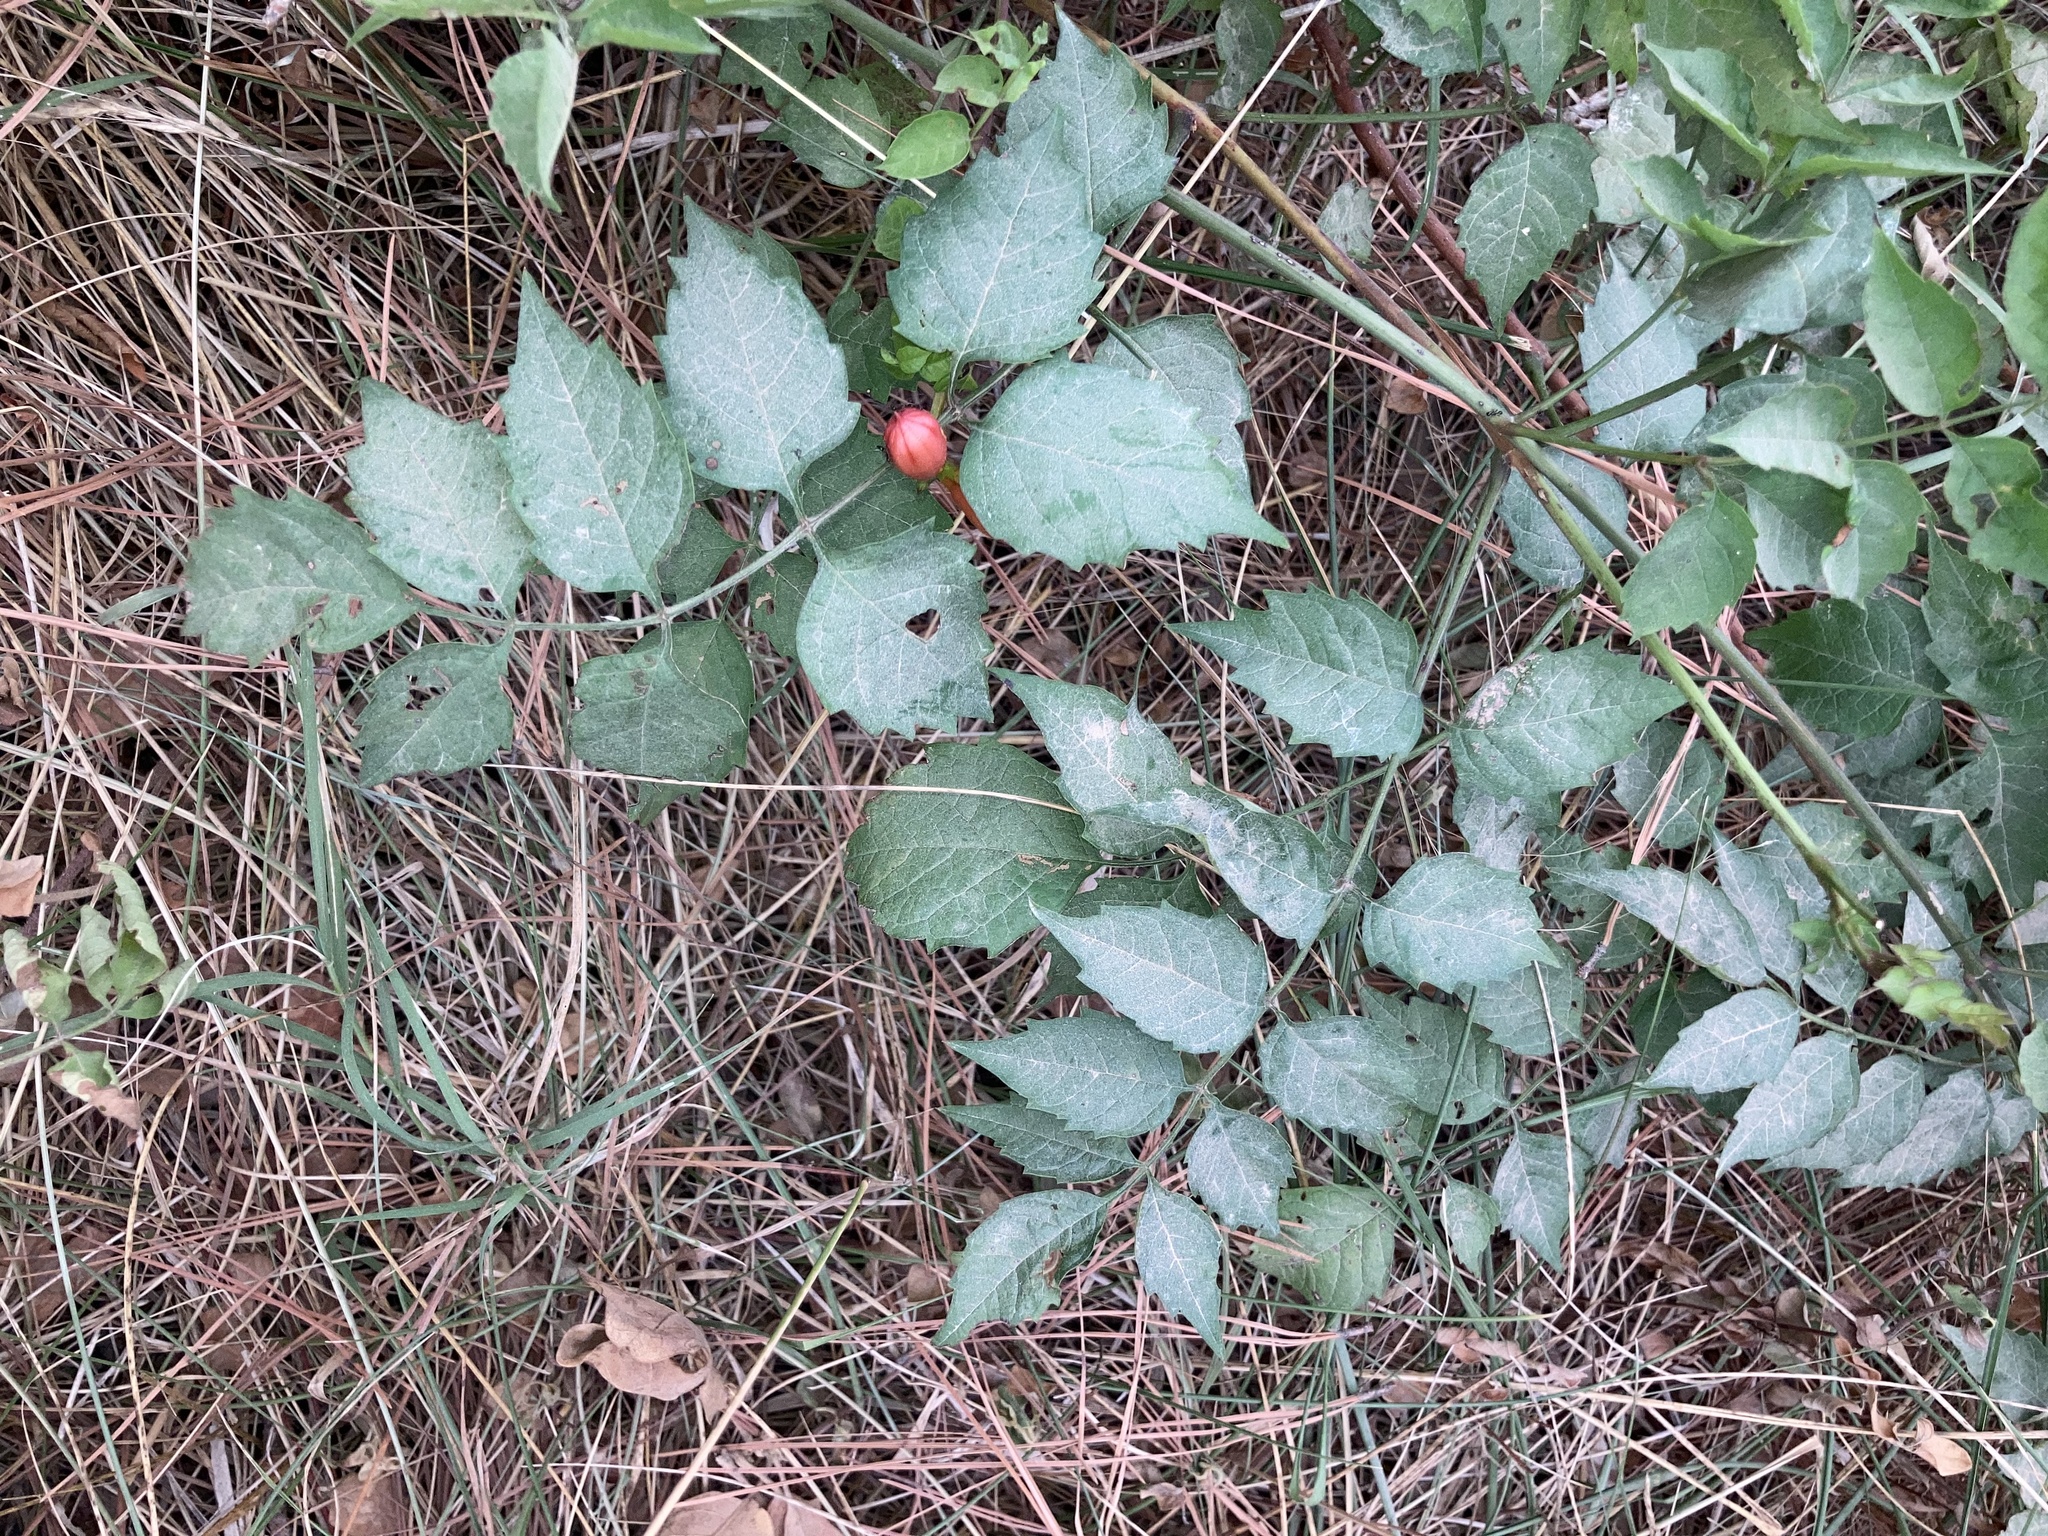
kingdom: Plantae
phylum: Tracheophyta
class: Magnoliopsida
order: Lamiales
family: Bignoniaceae
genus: Campsis
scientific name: Campsis radicans
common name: Trumpet-creeper
